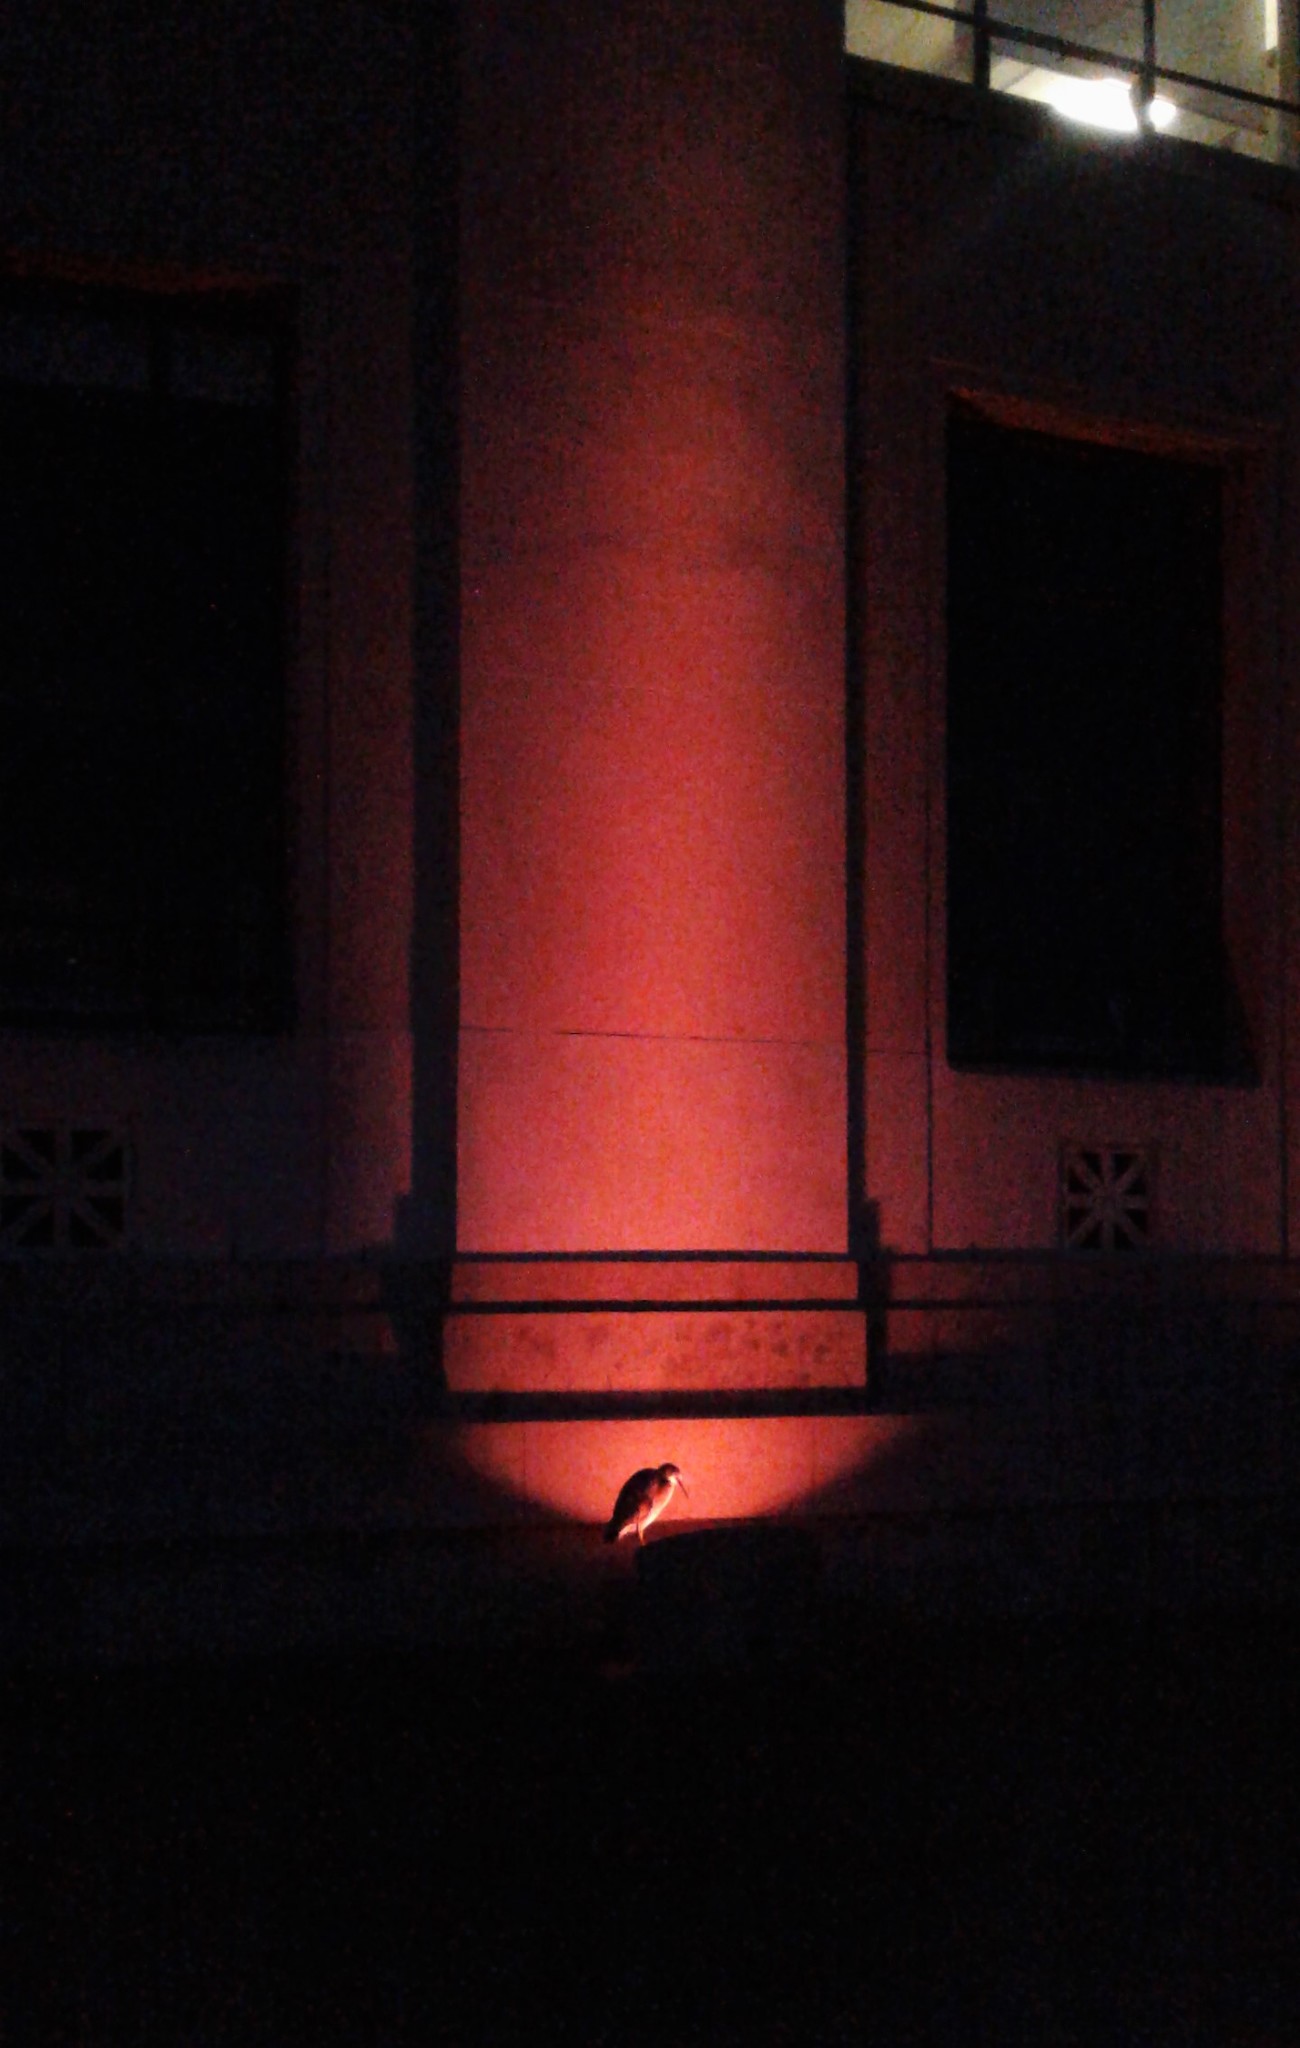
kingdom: Animalia
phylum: Chordata
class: Aves
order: Pelecaniformes
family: Ardeidae
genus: Egretta
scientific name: Egretta novaehollandiae
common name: White-faced heron
